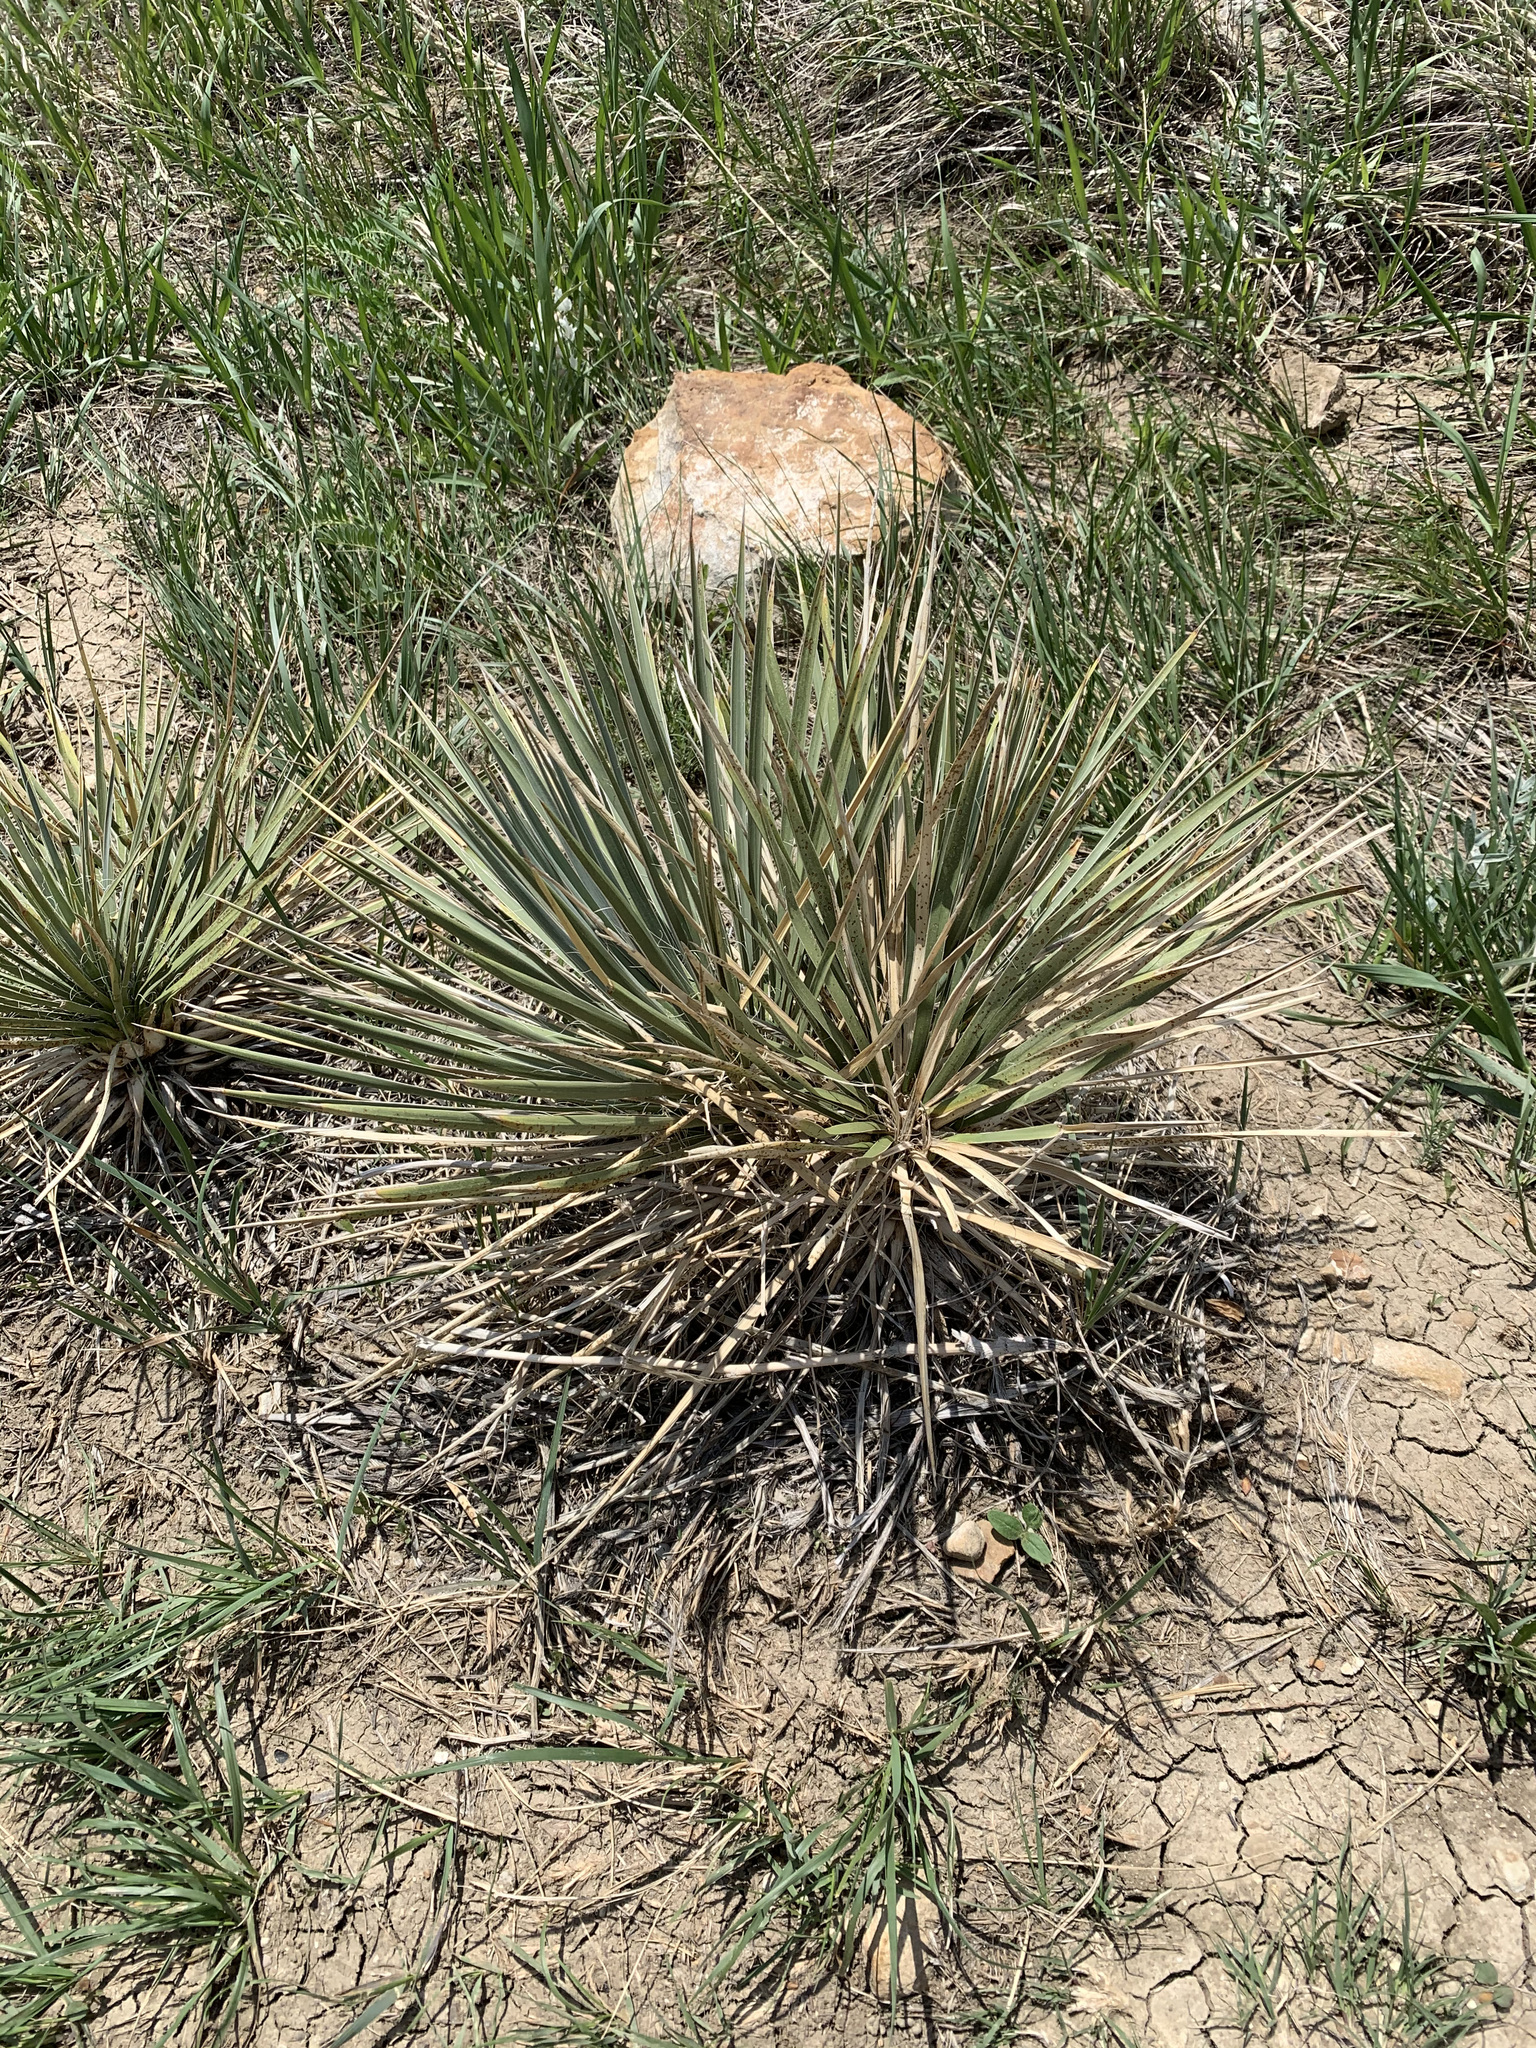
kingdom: Plantae
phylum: Tracheophyta
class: Liliopsida
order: Asparagales
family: Asparagaceae
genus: Yucca
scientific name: Yucca glauca
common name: Great plains yucca
